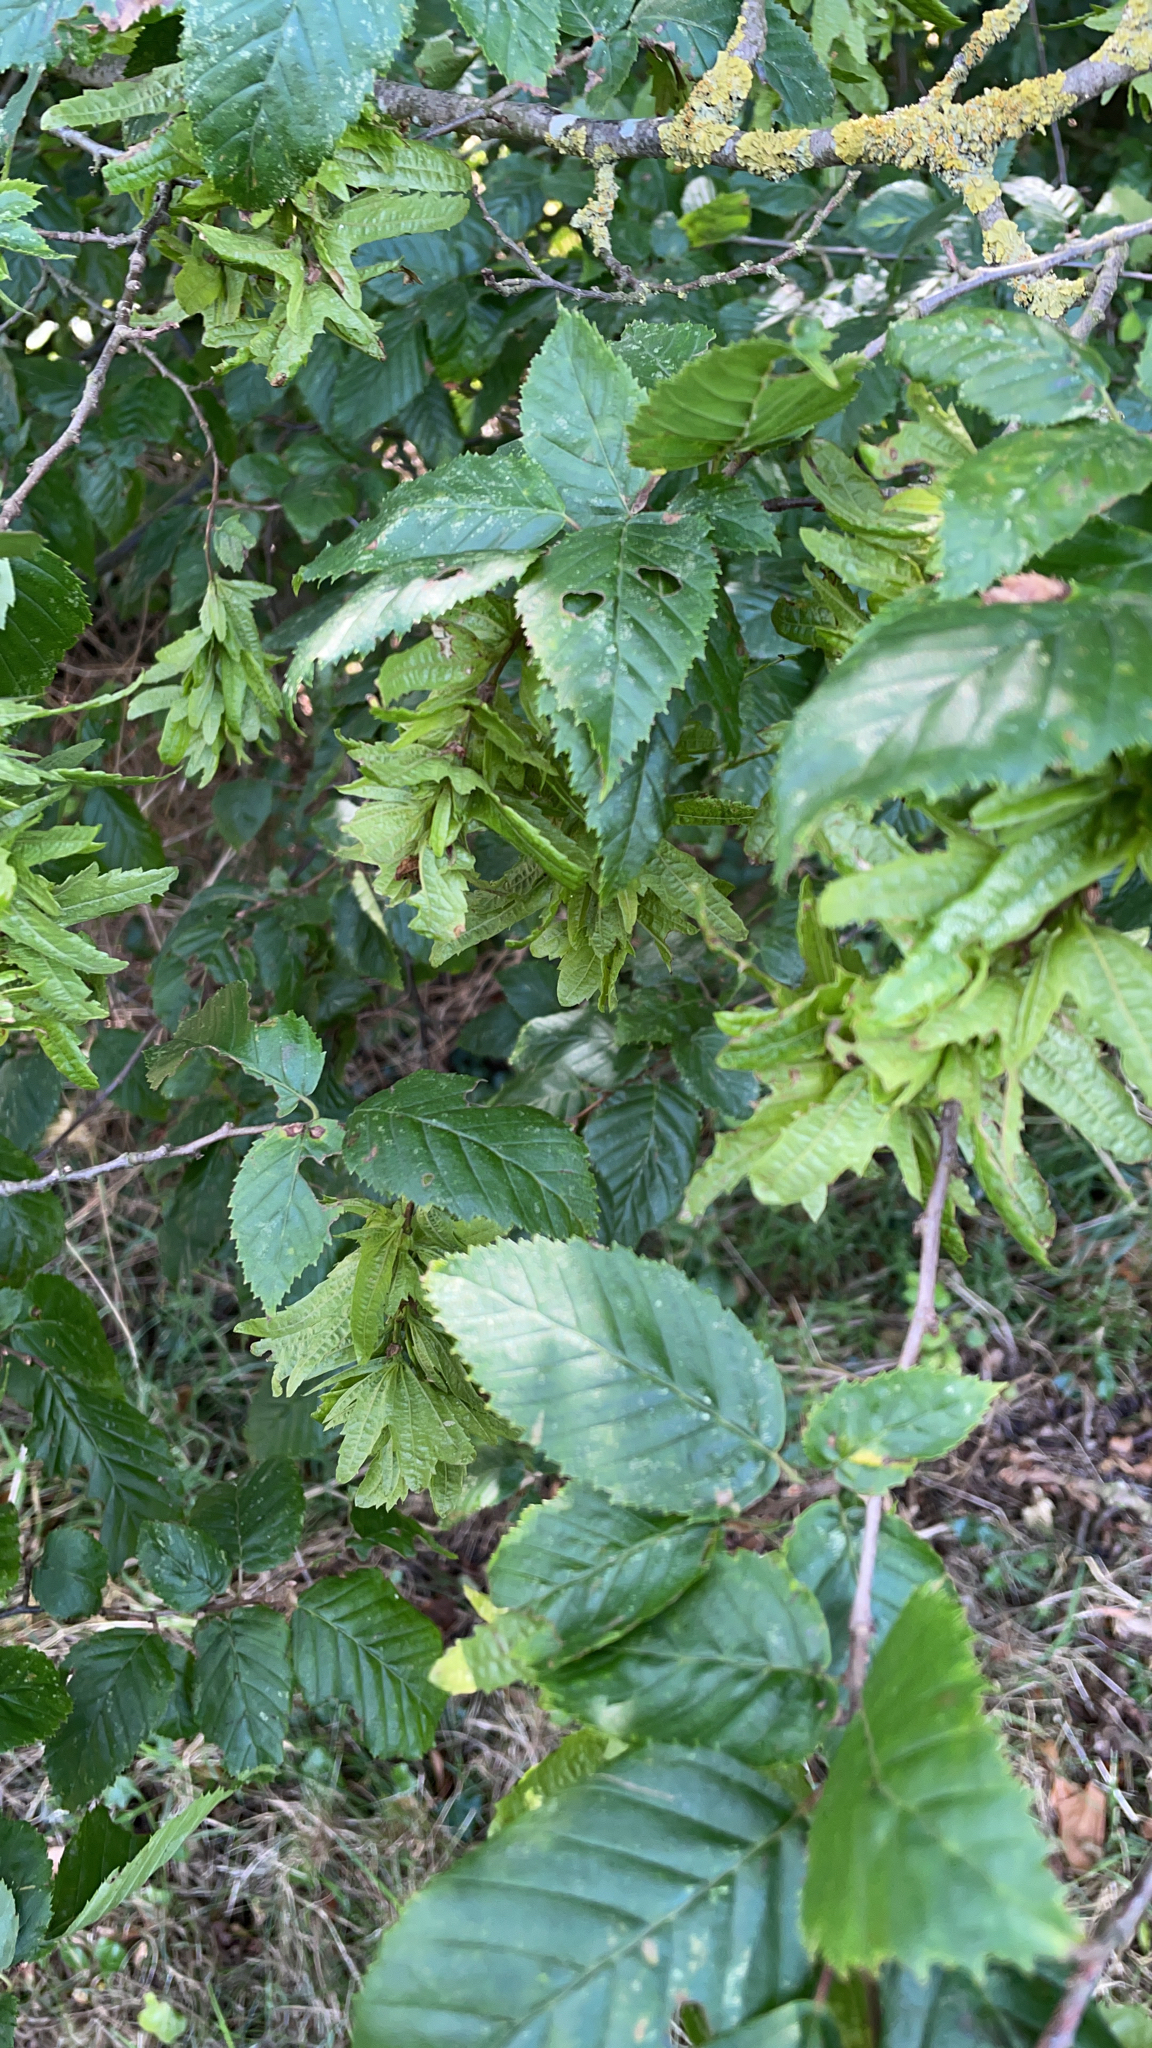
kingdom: Plantae
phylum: Tracheophyta
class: Magnoliopsida
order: Fagales
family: Betulaceae
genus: Carpinus
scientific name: Carpinus betulus
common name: Hornbeam
